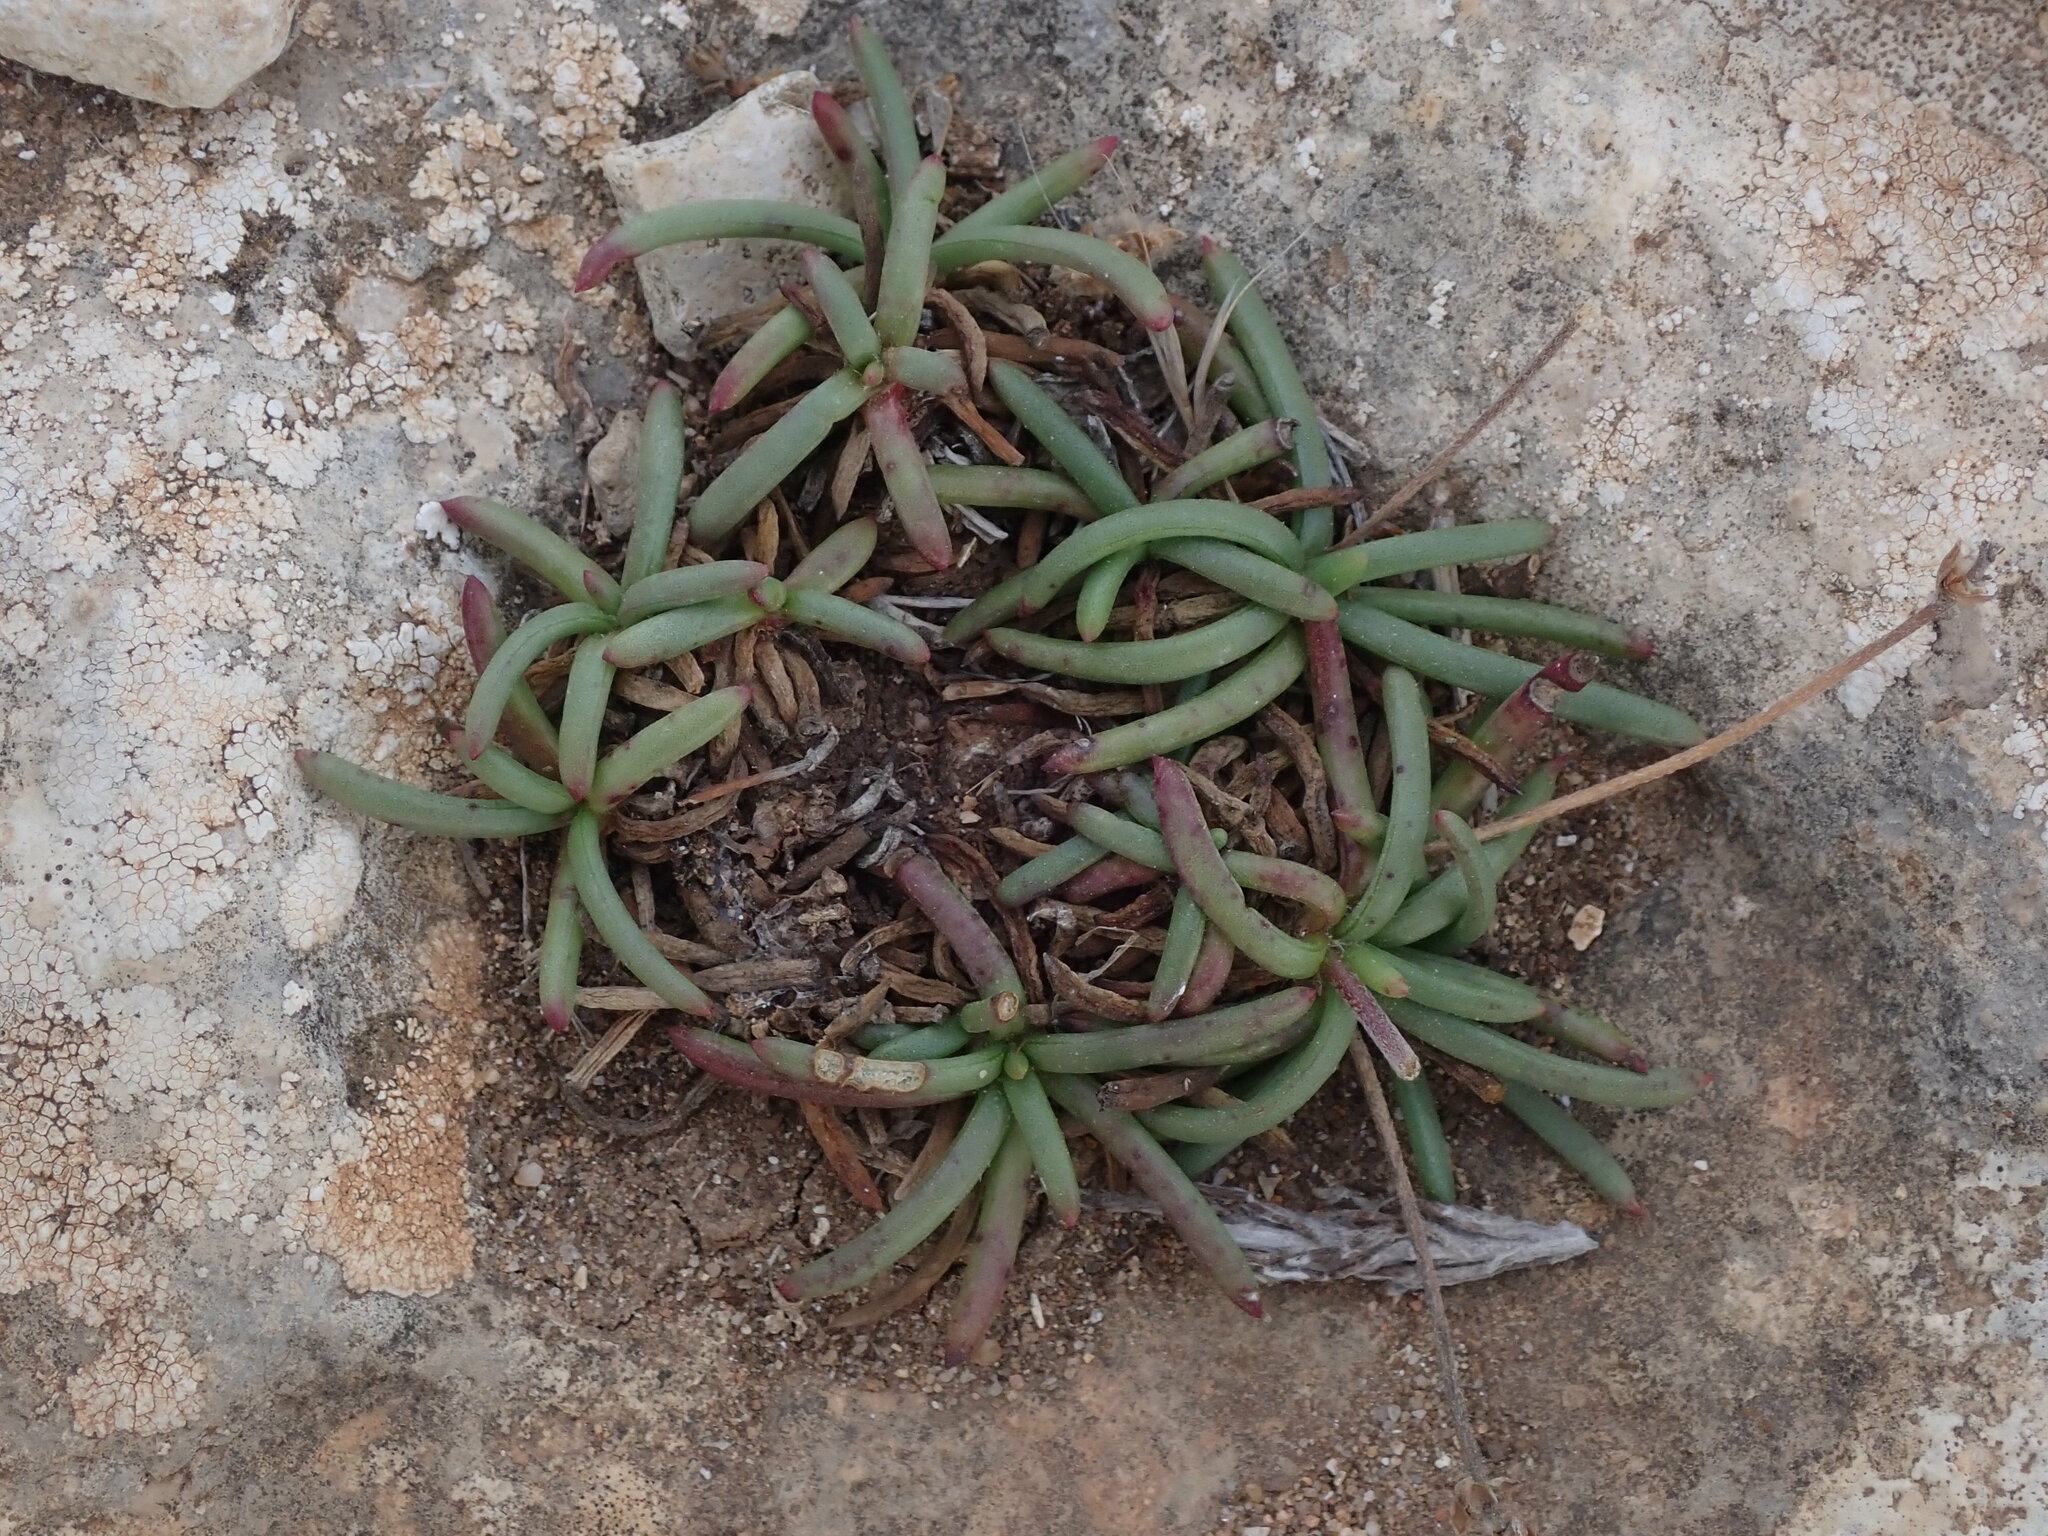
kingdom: Plantae
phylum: Tracheophyta
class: Magnoliopsida
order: Lamiales
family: Plantaginaceae
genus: Plantago
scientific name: Plantago crassifolia
